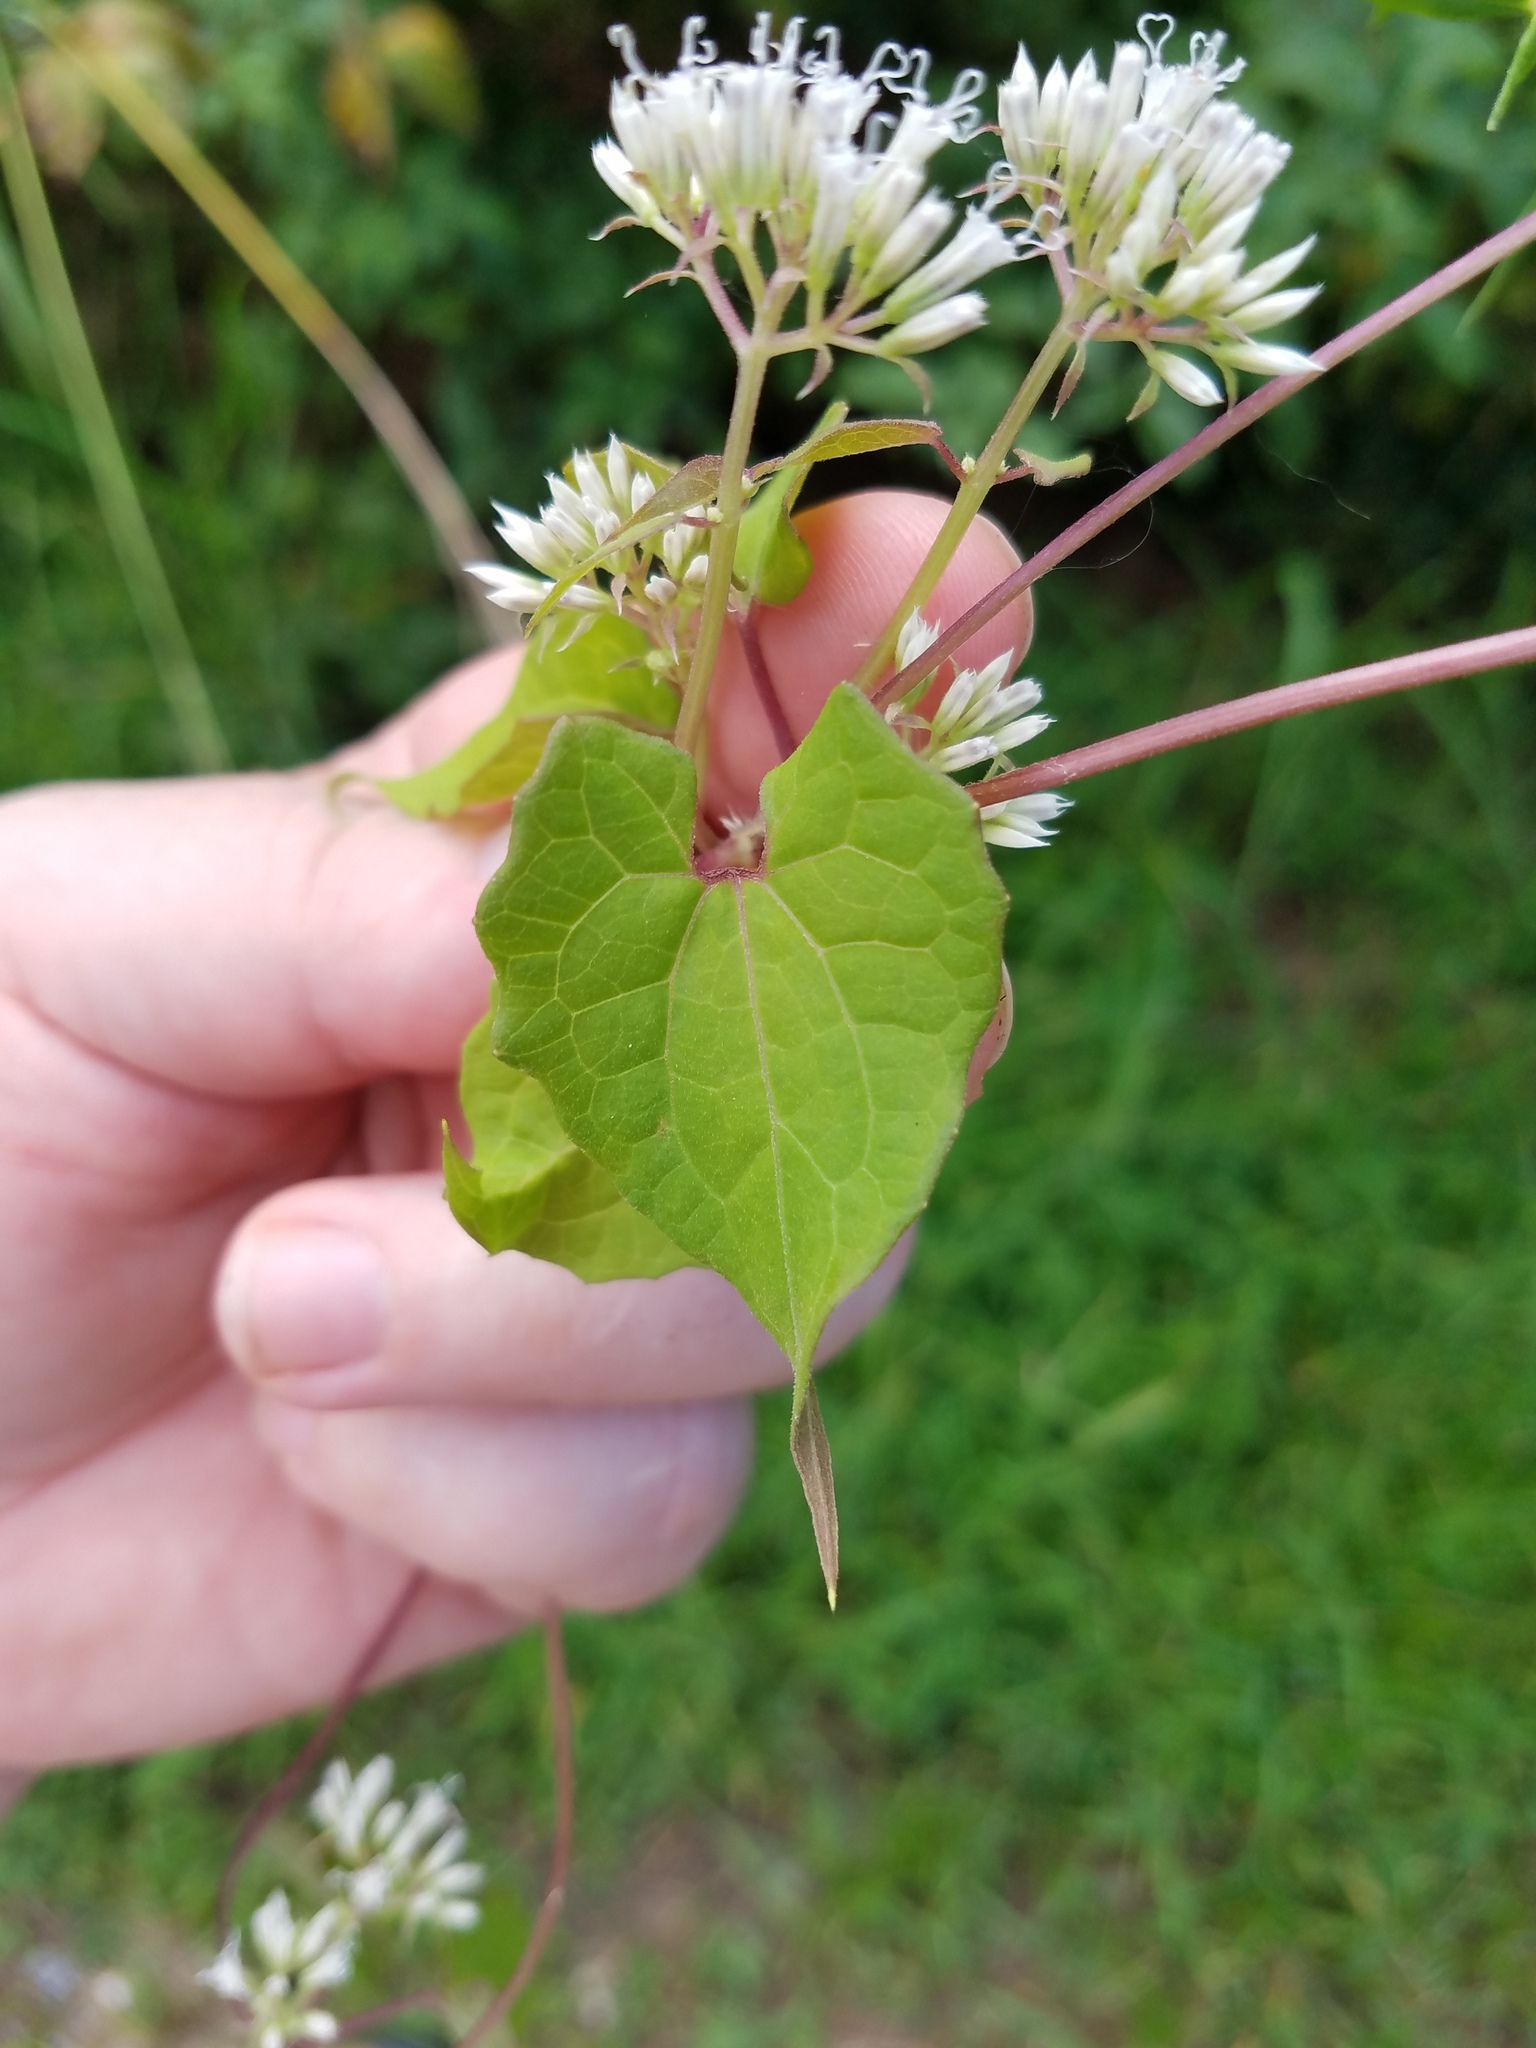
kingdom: Plantae
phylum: Tracheophyta
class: Magnoliopsida
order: Asterales
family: Asteraceae
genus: Mikania
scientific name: Mikania scandens
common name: Climbing hempvine
